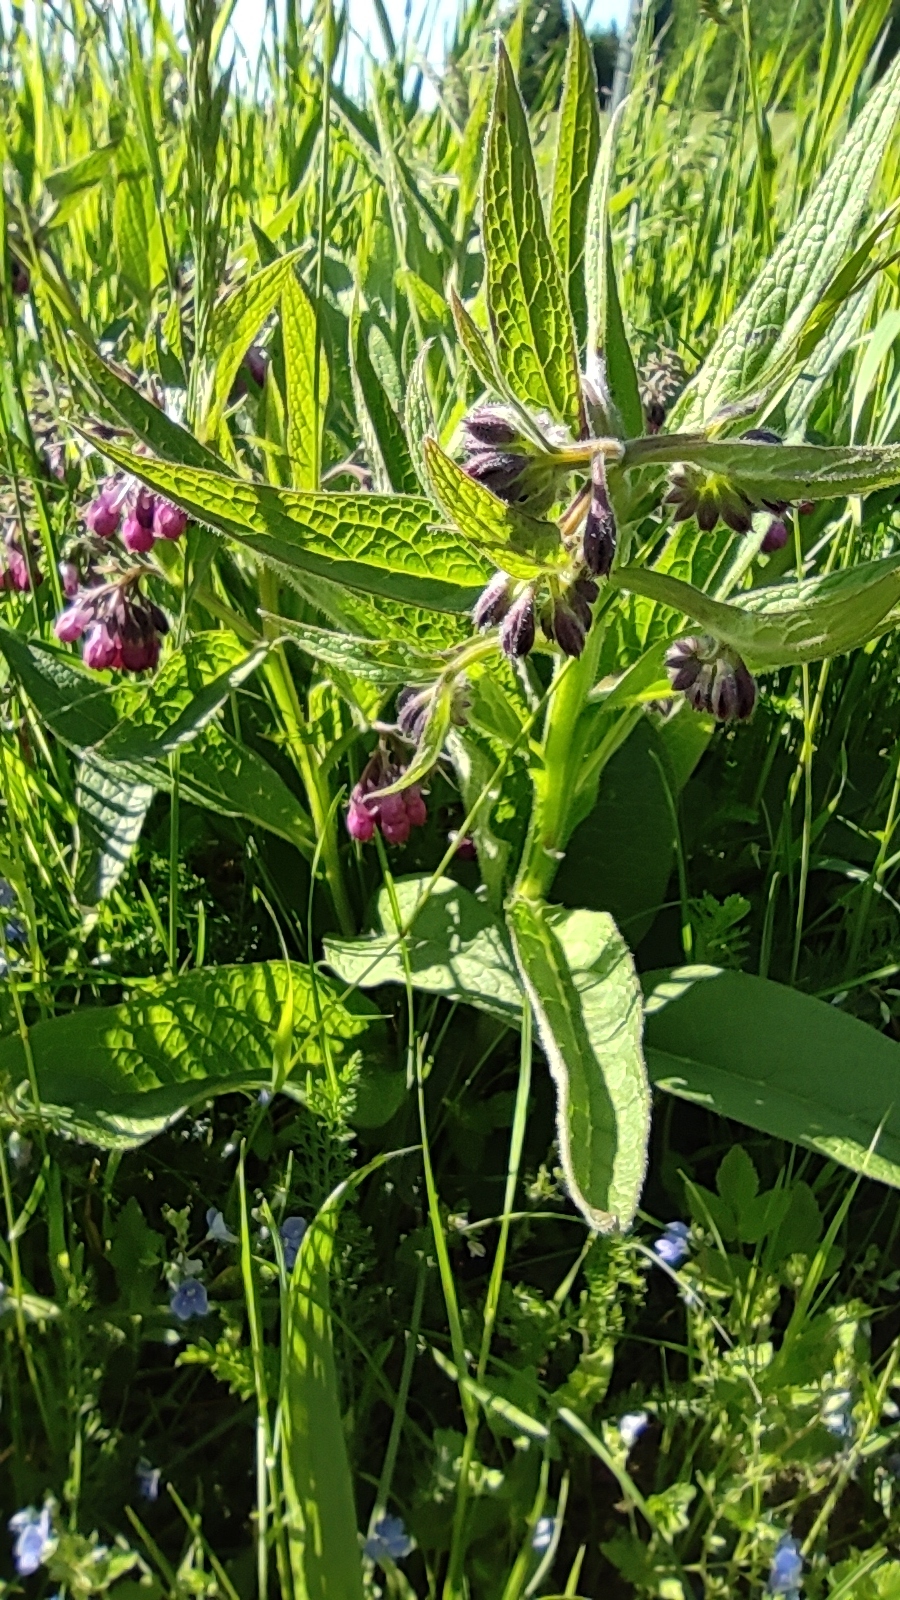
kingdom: Plantae
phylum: Tracheophyta
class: Magnoliopsida
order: Boraginales
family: Boraginaceae
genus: Symphytum
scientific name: Symphytum officinale
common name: Common comfrey
